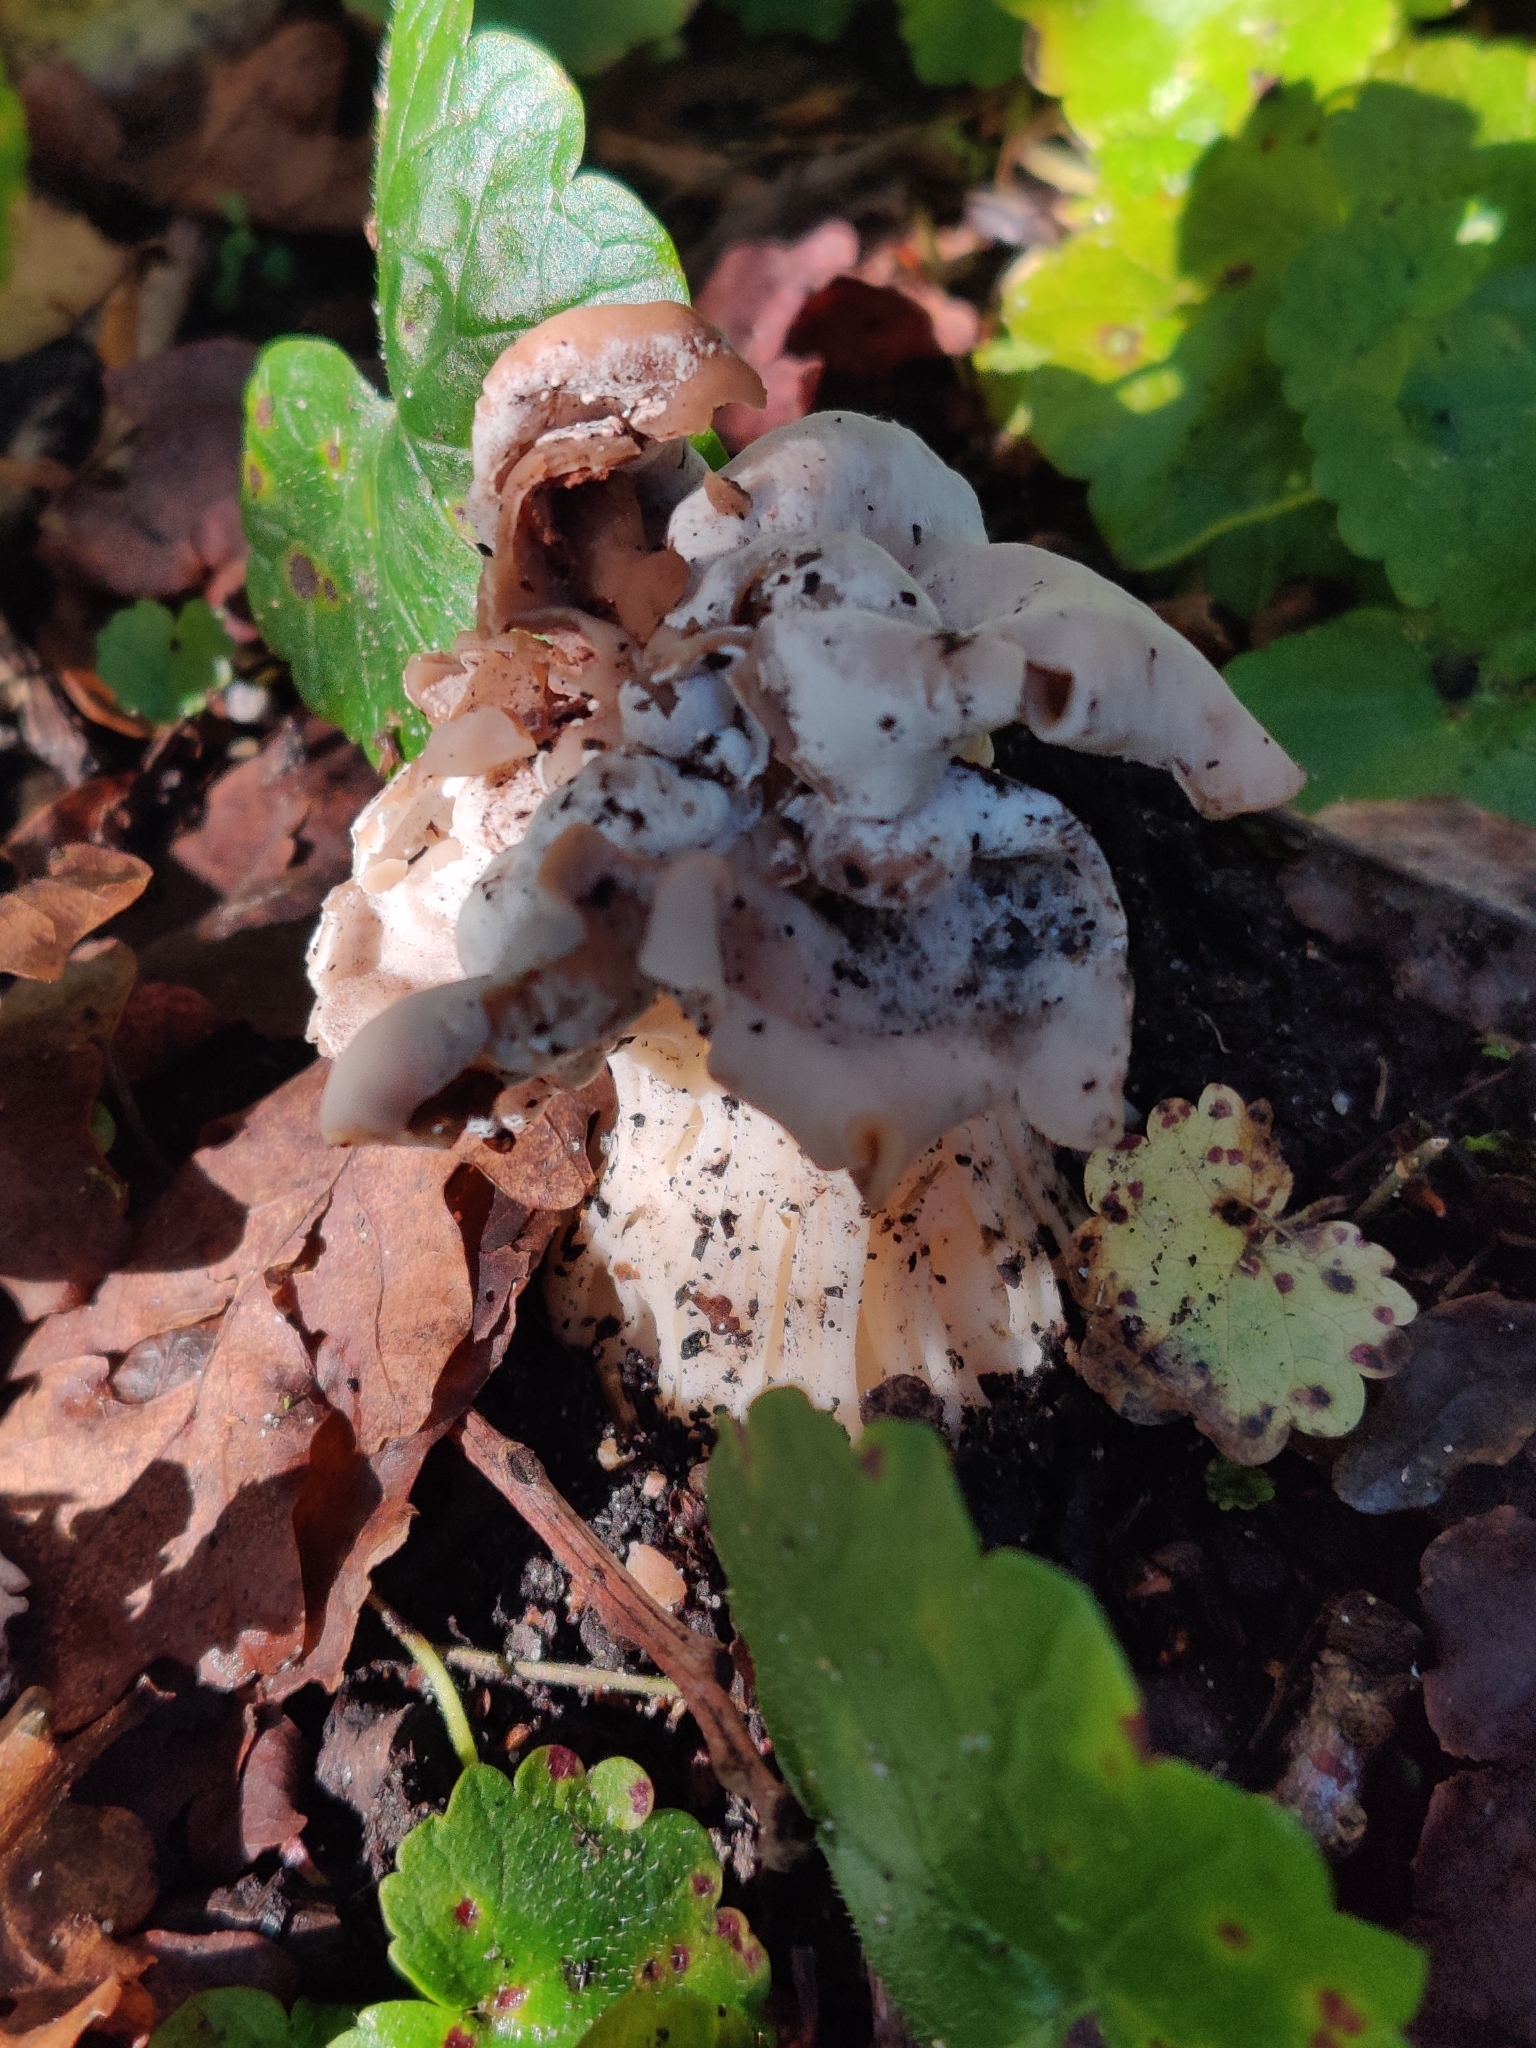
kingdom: Fungi
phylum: Ascomycota
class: Pezizomycetes
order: Pezizales
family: Helvellaceae
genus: Helvella
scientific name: Helvella crispa
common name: White saddle
